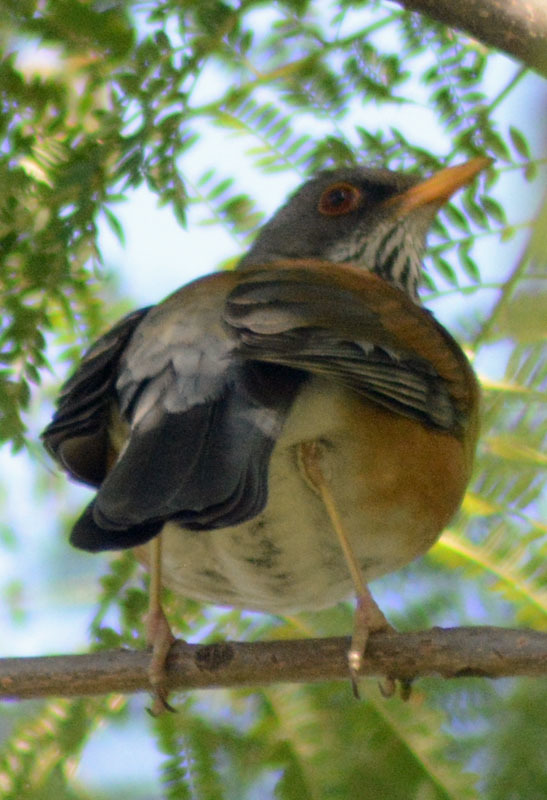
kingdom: Animalia
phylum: Chordata
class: Aves
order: Passeriformes
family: Turdidae
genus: Turdus
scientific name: Turdus rufopalliatus
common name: Rufous-backed robin
